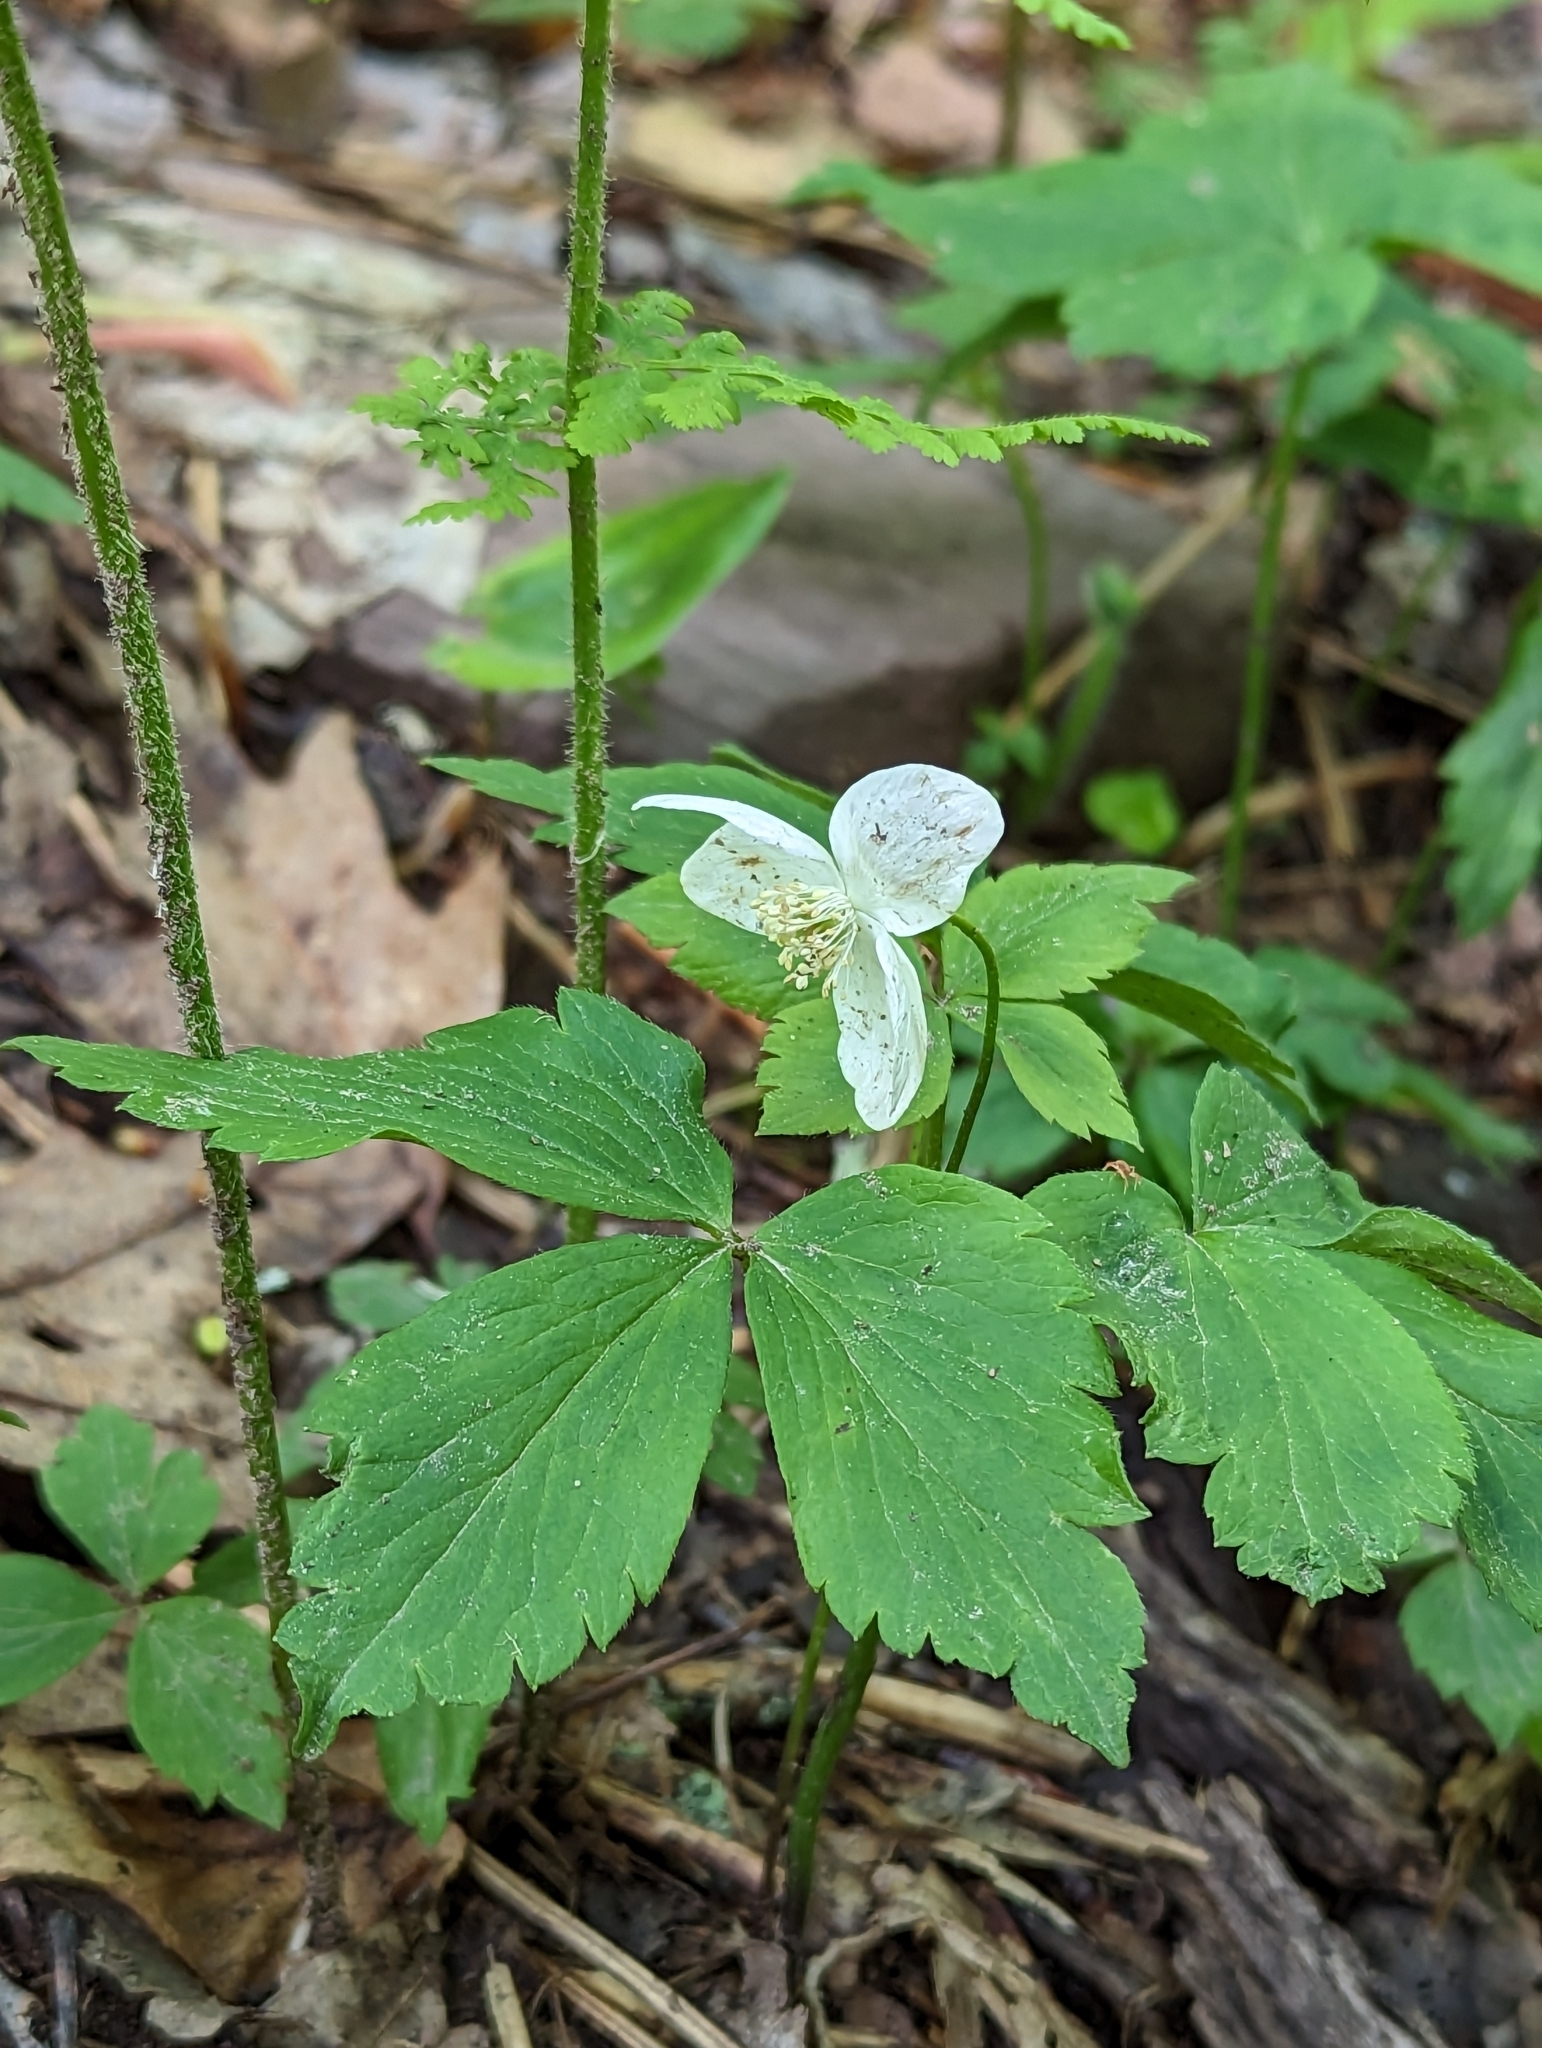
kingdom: Plantae
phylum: Tracheophyta
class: Magnoliopsida
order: Ranunculales
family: Ranunculaceae
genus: Anemone
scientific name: Anemone lancifolia
